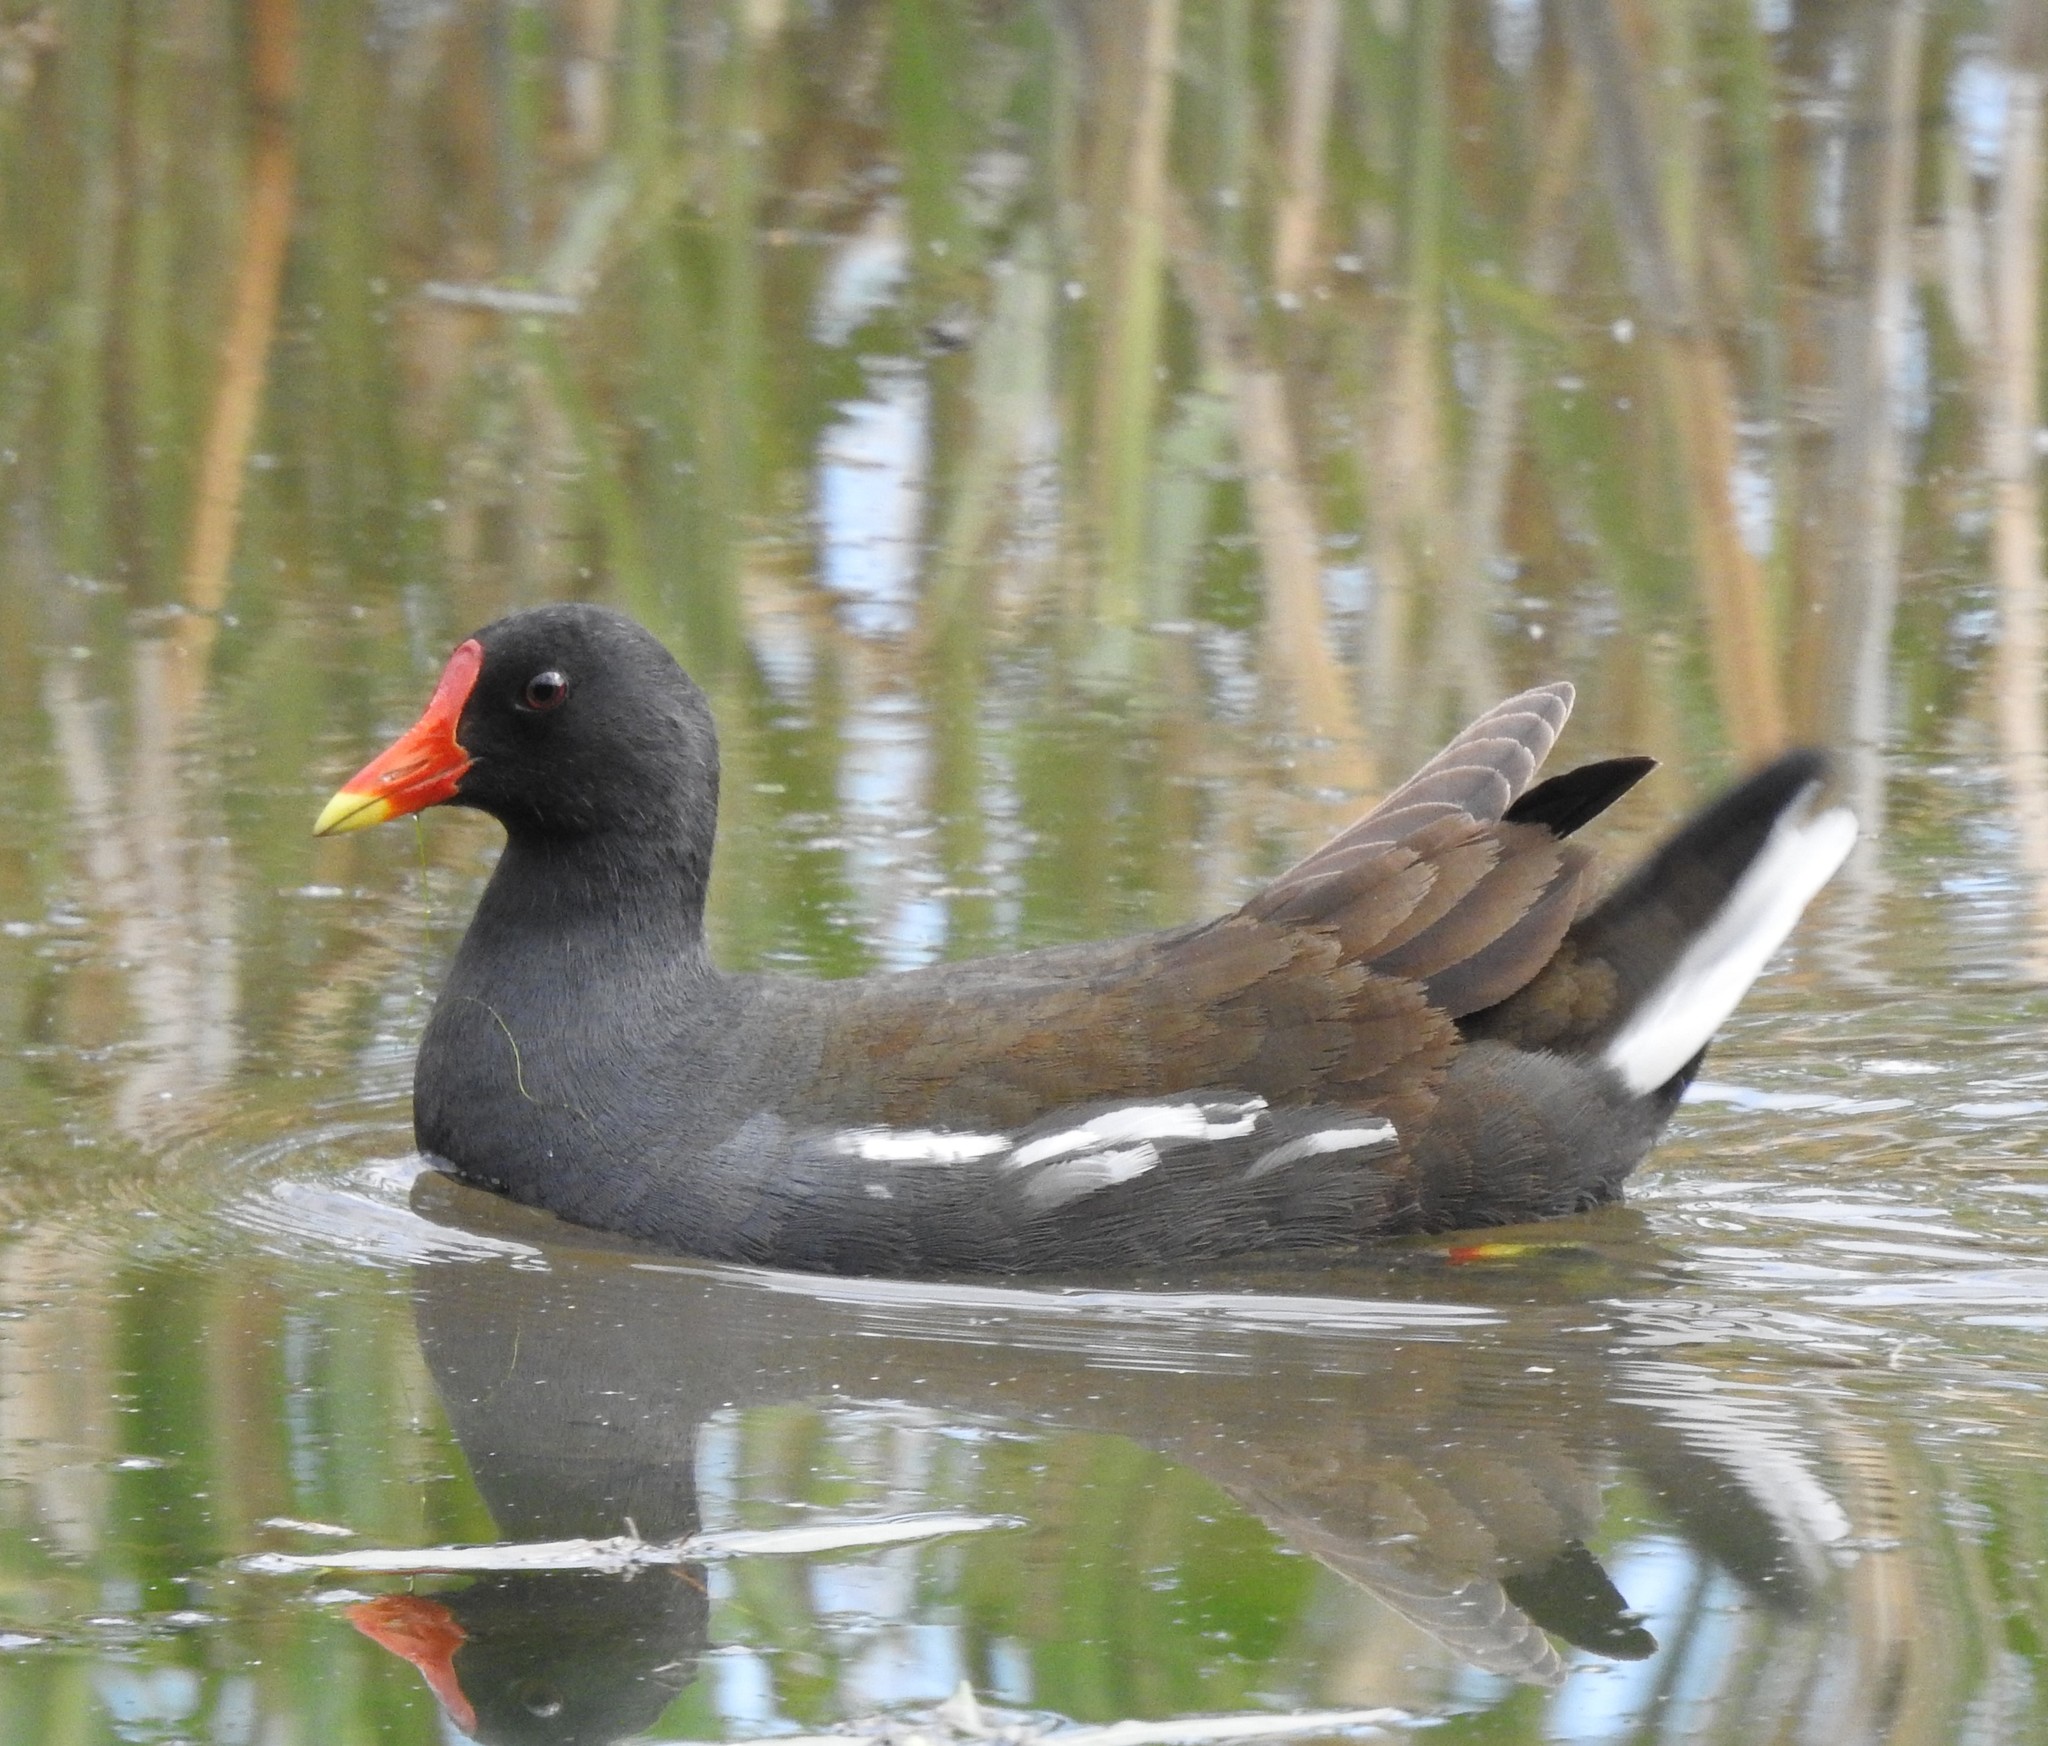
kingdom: Animalia
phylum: Chordata
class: Aves
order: Gruiformes
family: Rallidae
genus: Gallinula
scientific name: Gallinula chloropus
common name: Common moorhen
